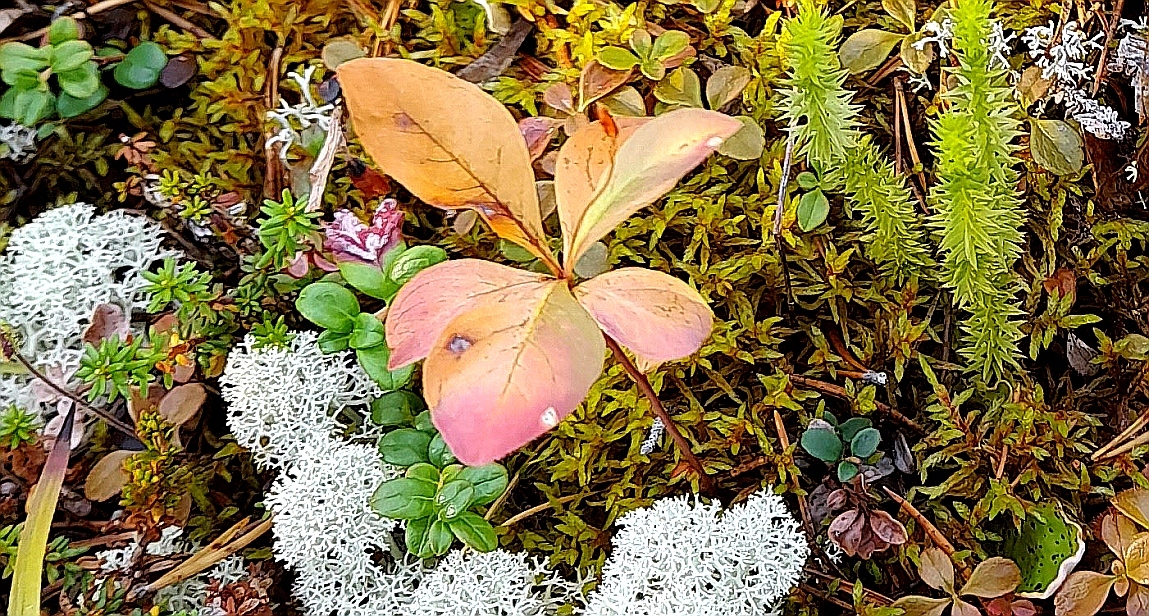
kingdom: Plantae
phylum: Tracheophyta
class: Magnoliopsida
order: Ericales
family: Primulaceae
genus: Lysimachia
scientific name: Lysimachia europaea
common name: Arctic starflower
